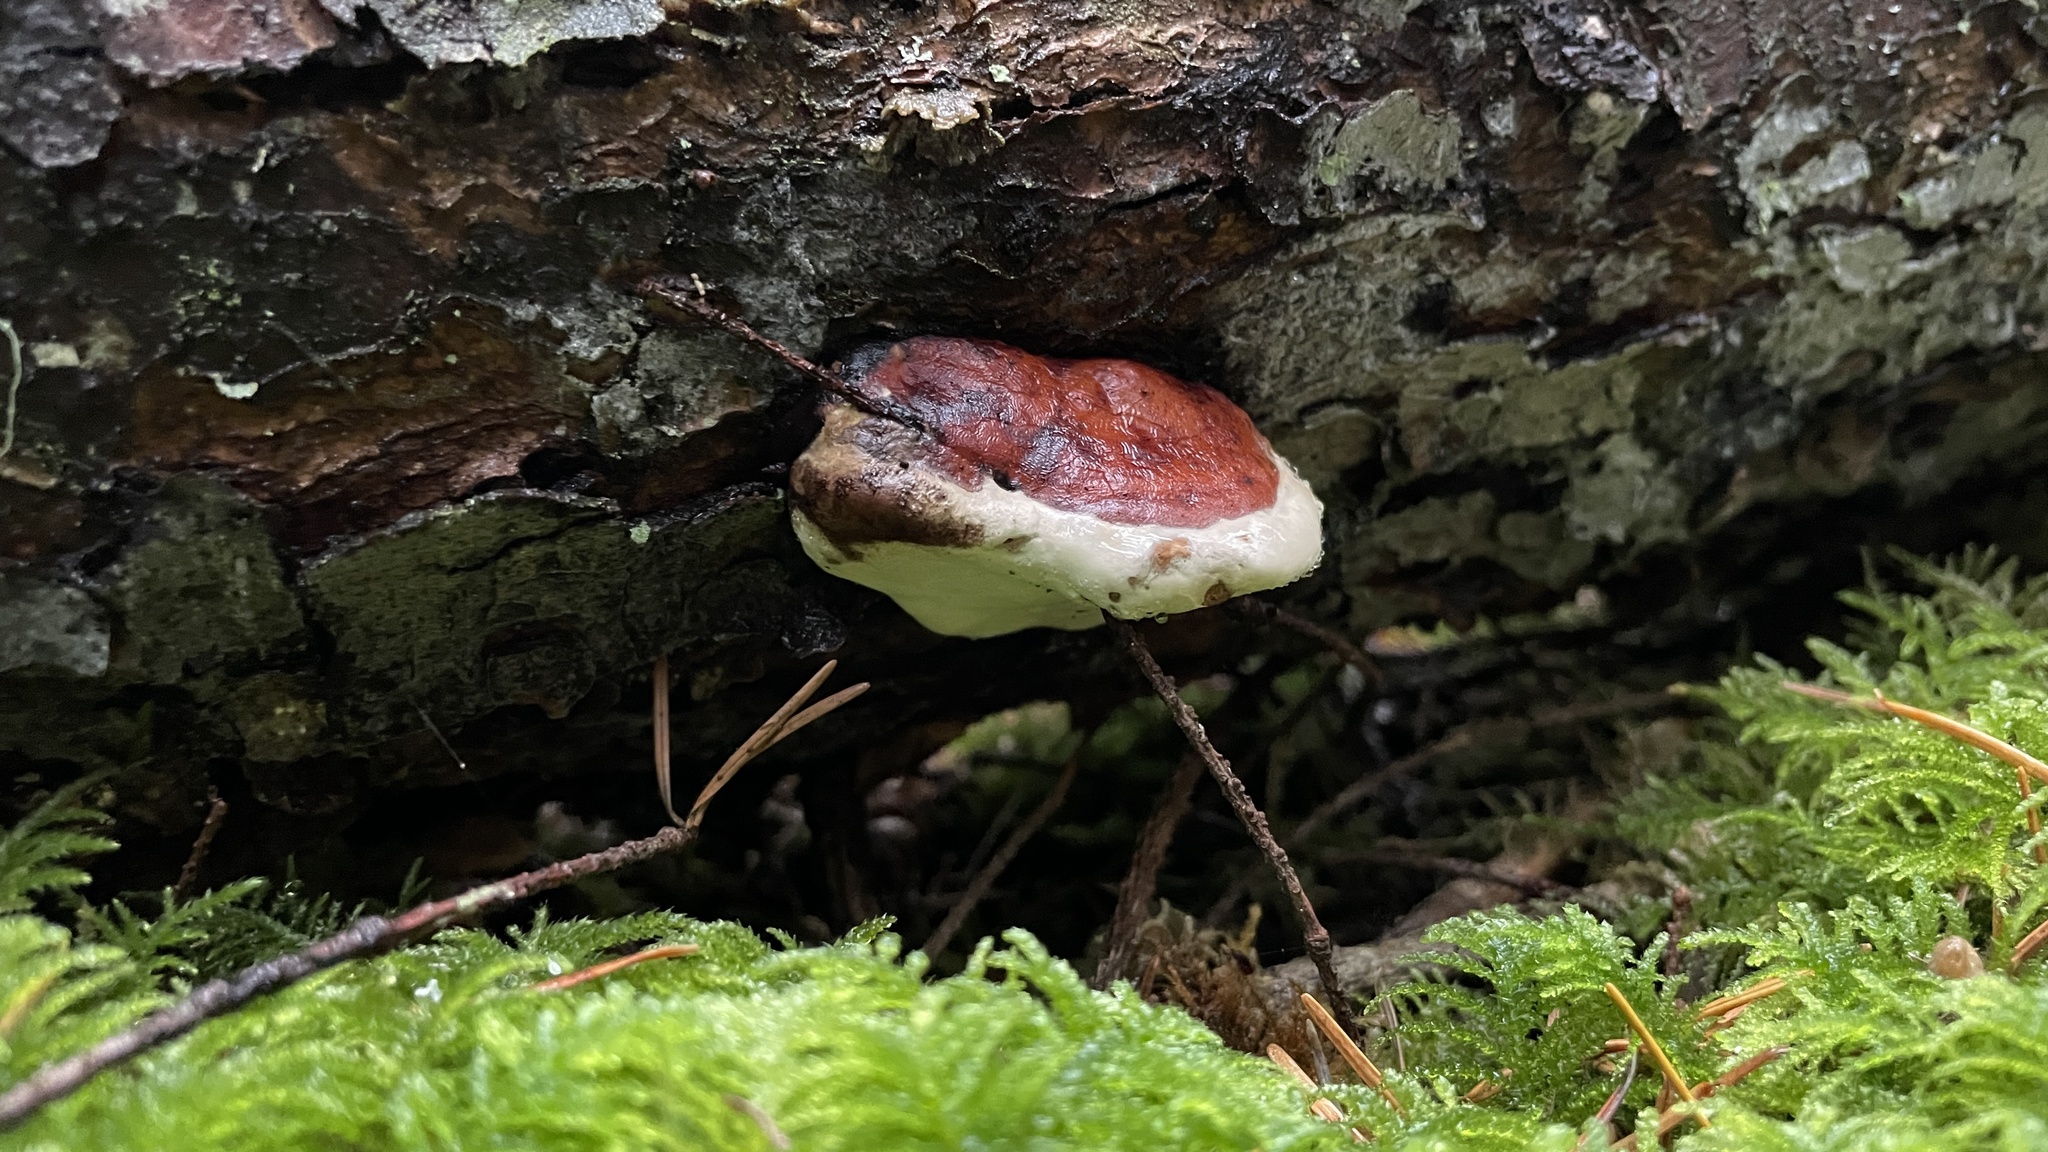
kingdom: Fungi
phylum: Basidiomycota
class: Agaricomycetes
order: Polyporales
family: Fomitopsidaceae
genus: Fomitopsis
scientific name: Fomitopsis mounceae
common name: Northern red belt
